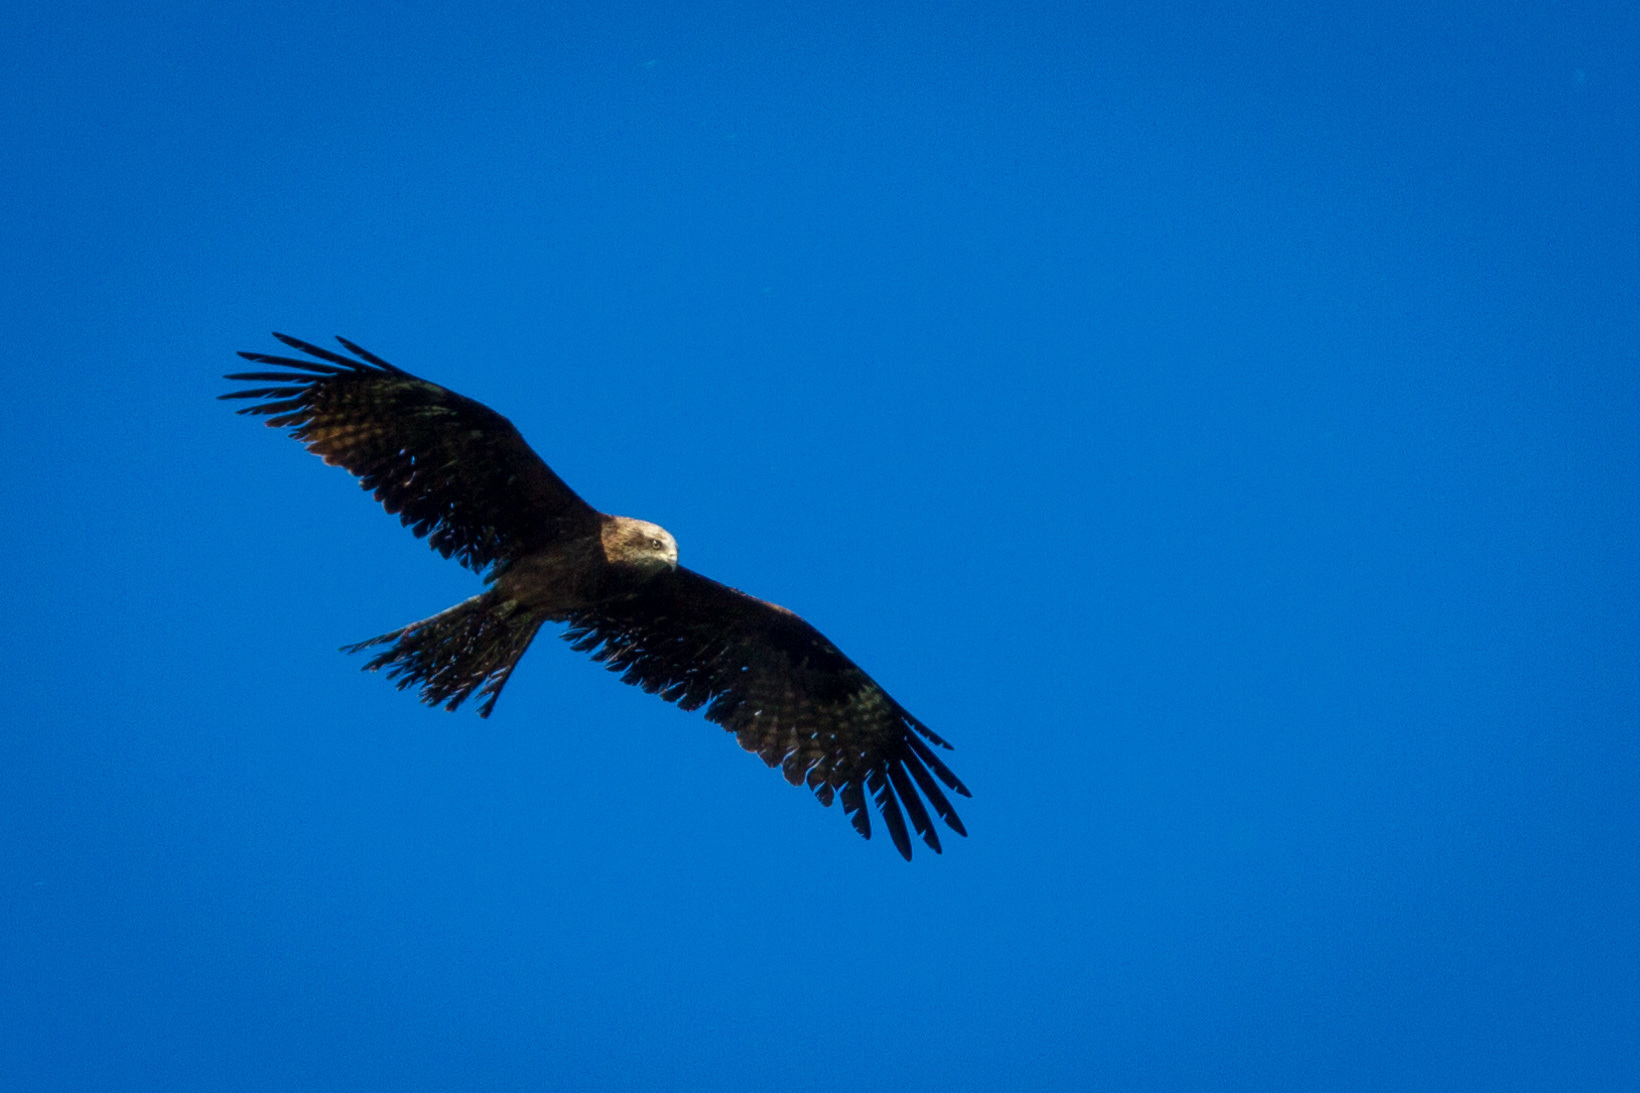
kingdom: Animalia
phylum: Chordata
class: Aves
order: Accipitriformes
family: Accipitridae
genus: Milvus
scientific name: Milvus migrans
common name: Black kite
